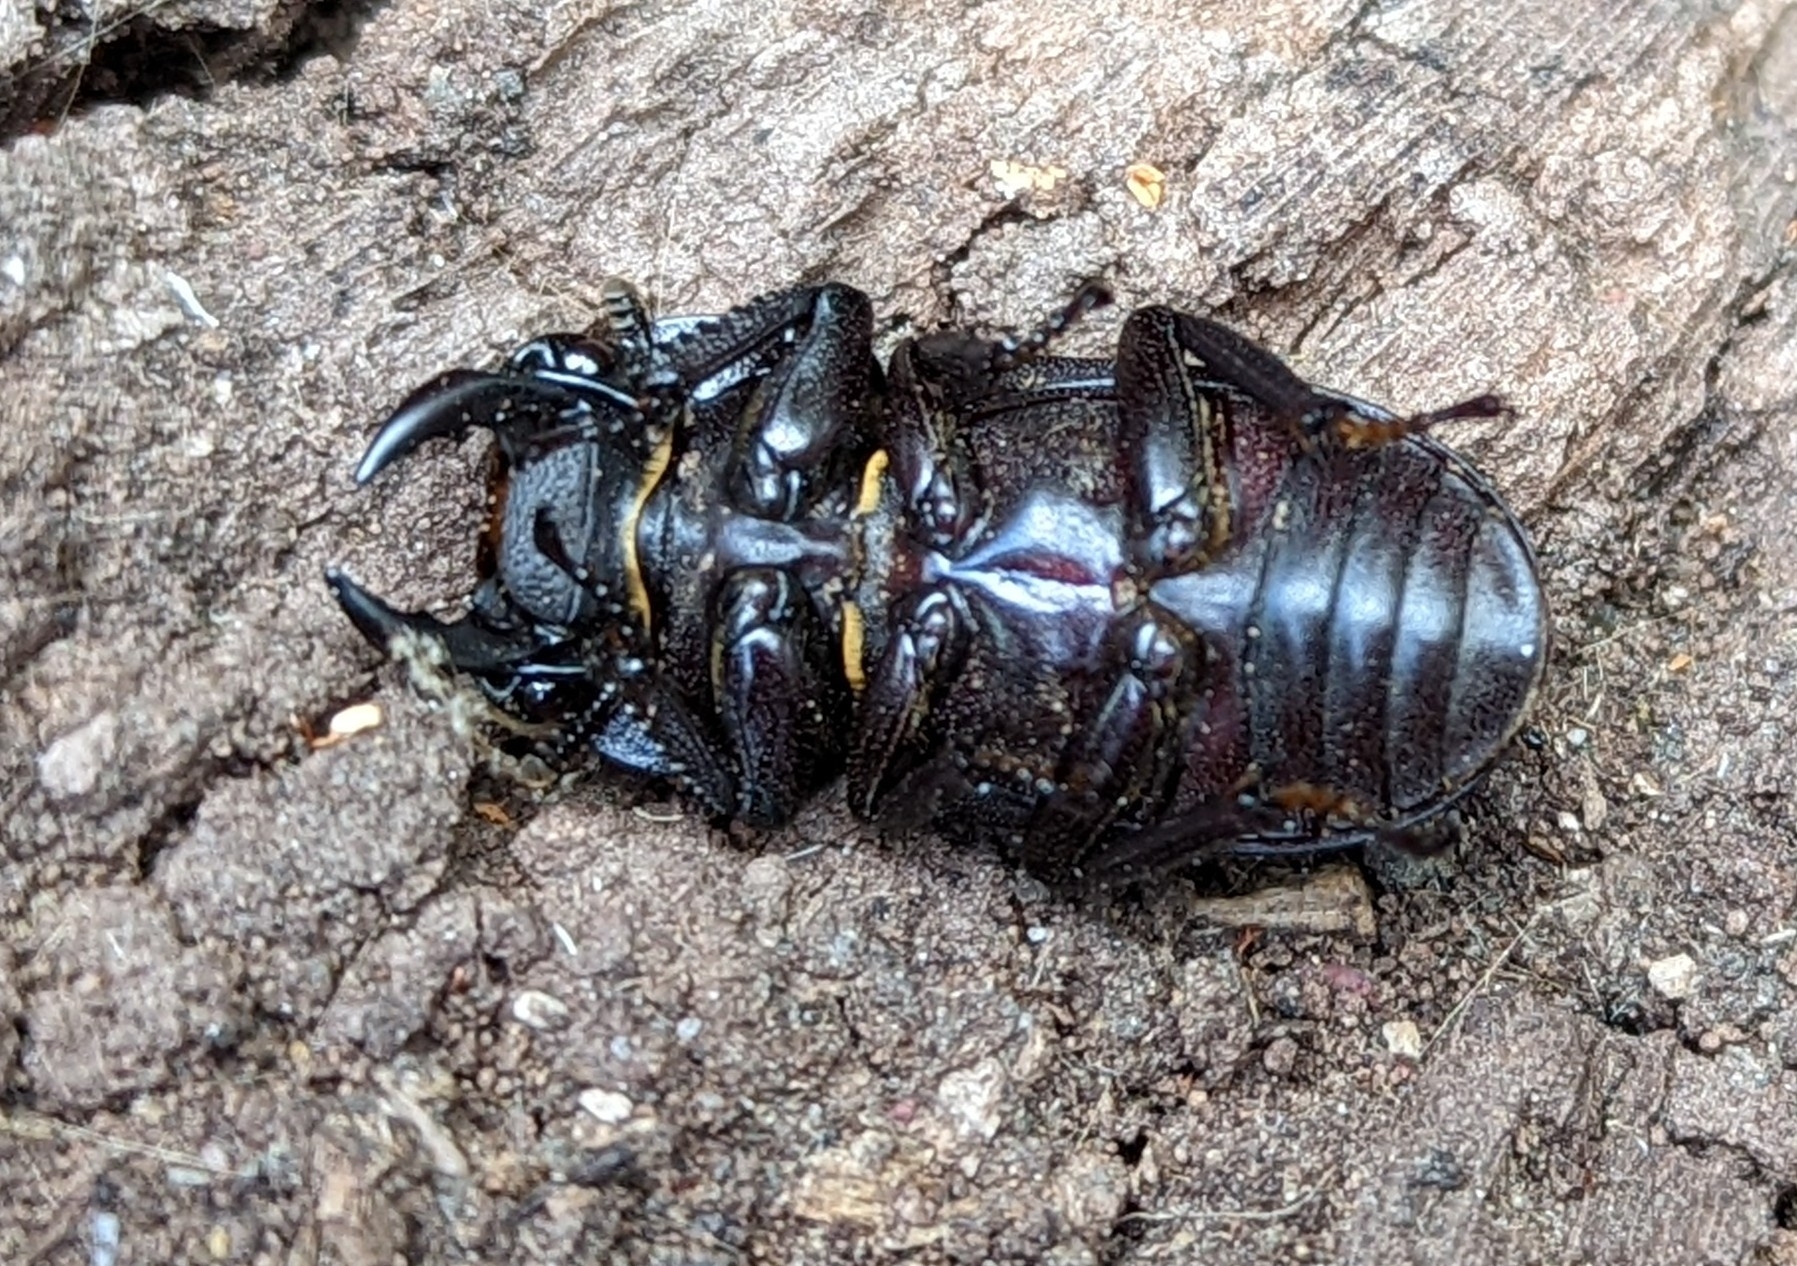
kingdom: Animalia
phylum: Arthropoda
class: Insecta
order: Coleoptera
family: Lucanidae
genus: Dorcus
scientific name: Dorcus parallelipipedus
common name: Lesser stag beetle
